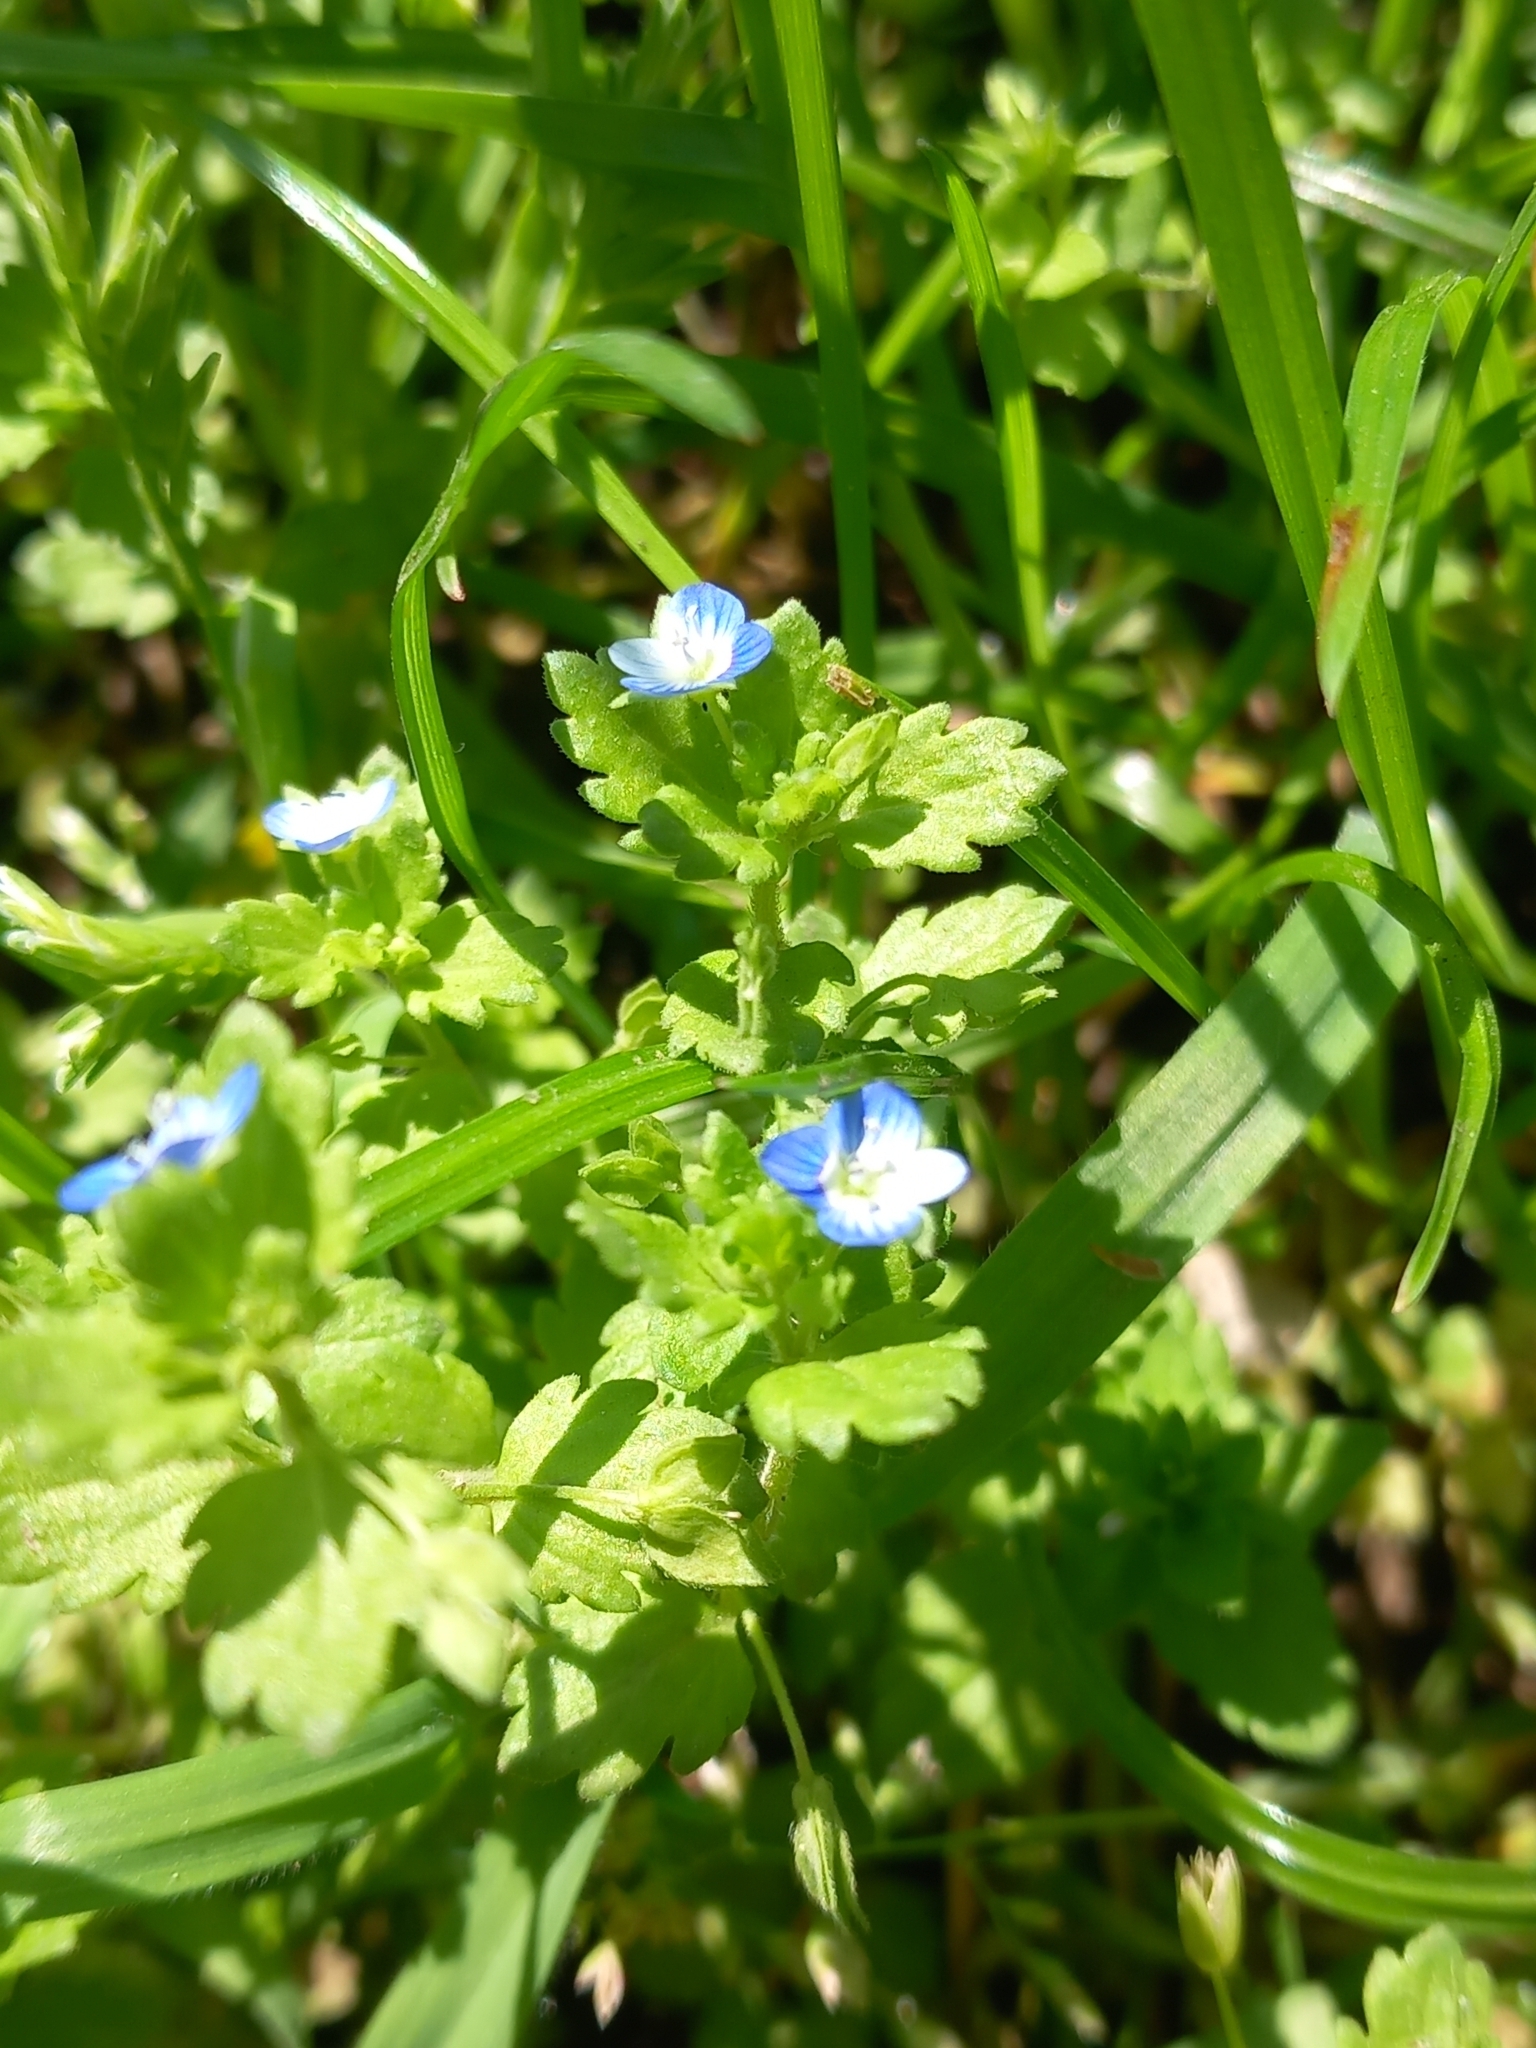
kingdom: Plantae
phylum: Tracheophyta
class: Magnoliopsida
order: Lamiales
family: Plantaginaceae
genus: Veronica
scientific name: Veronica persica
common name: Common field-speedwell
